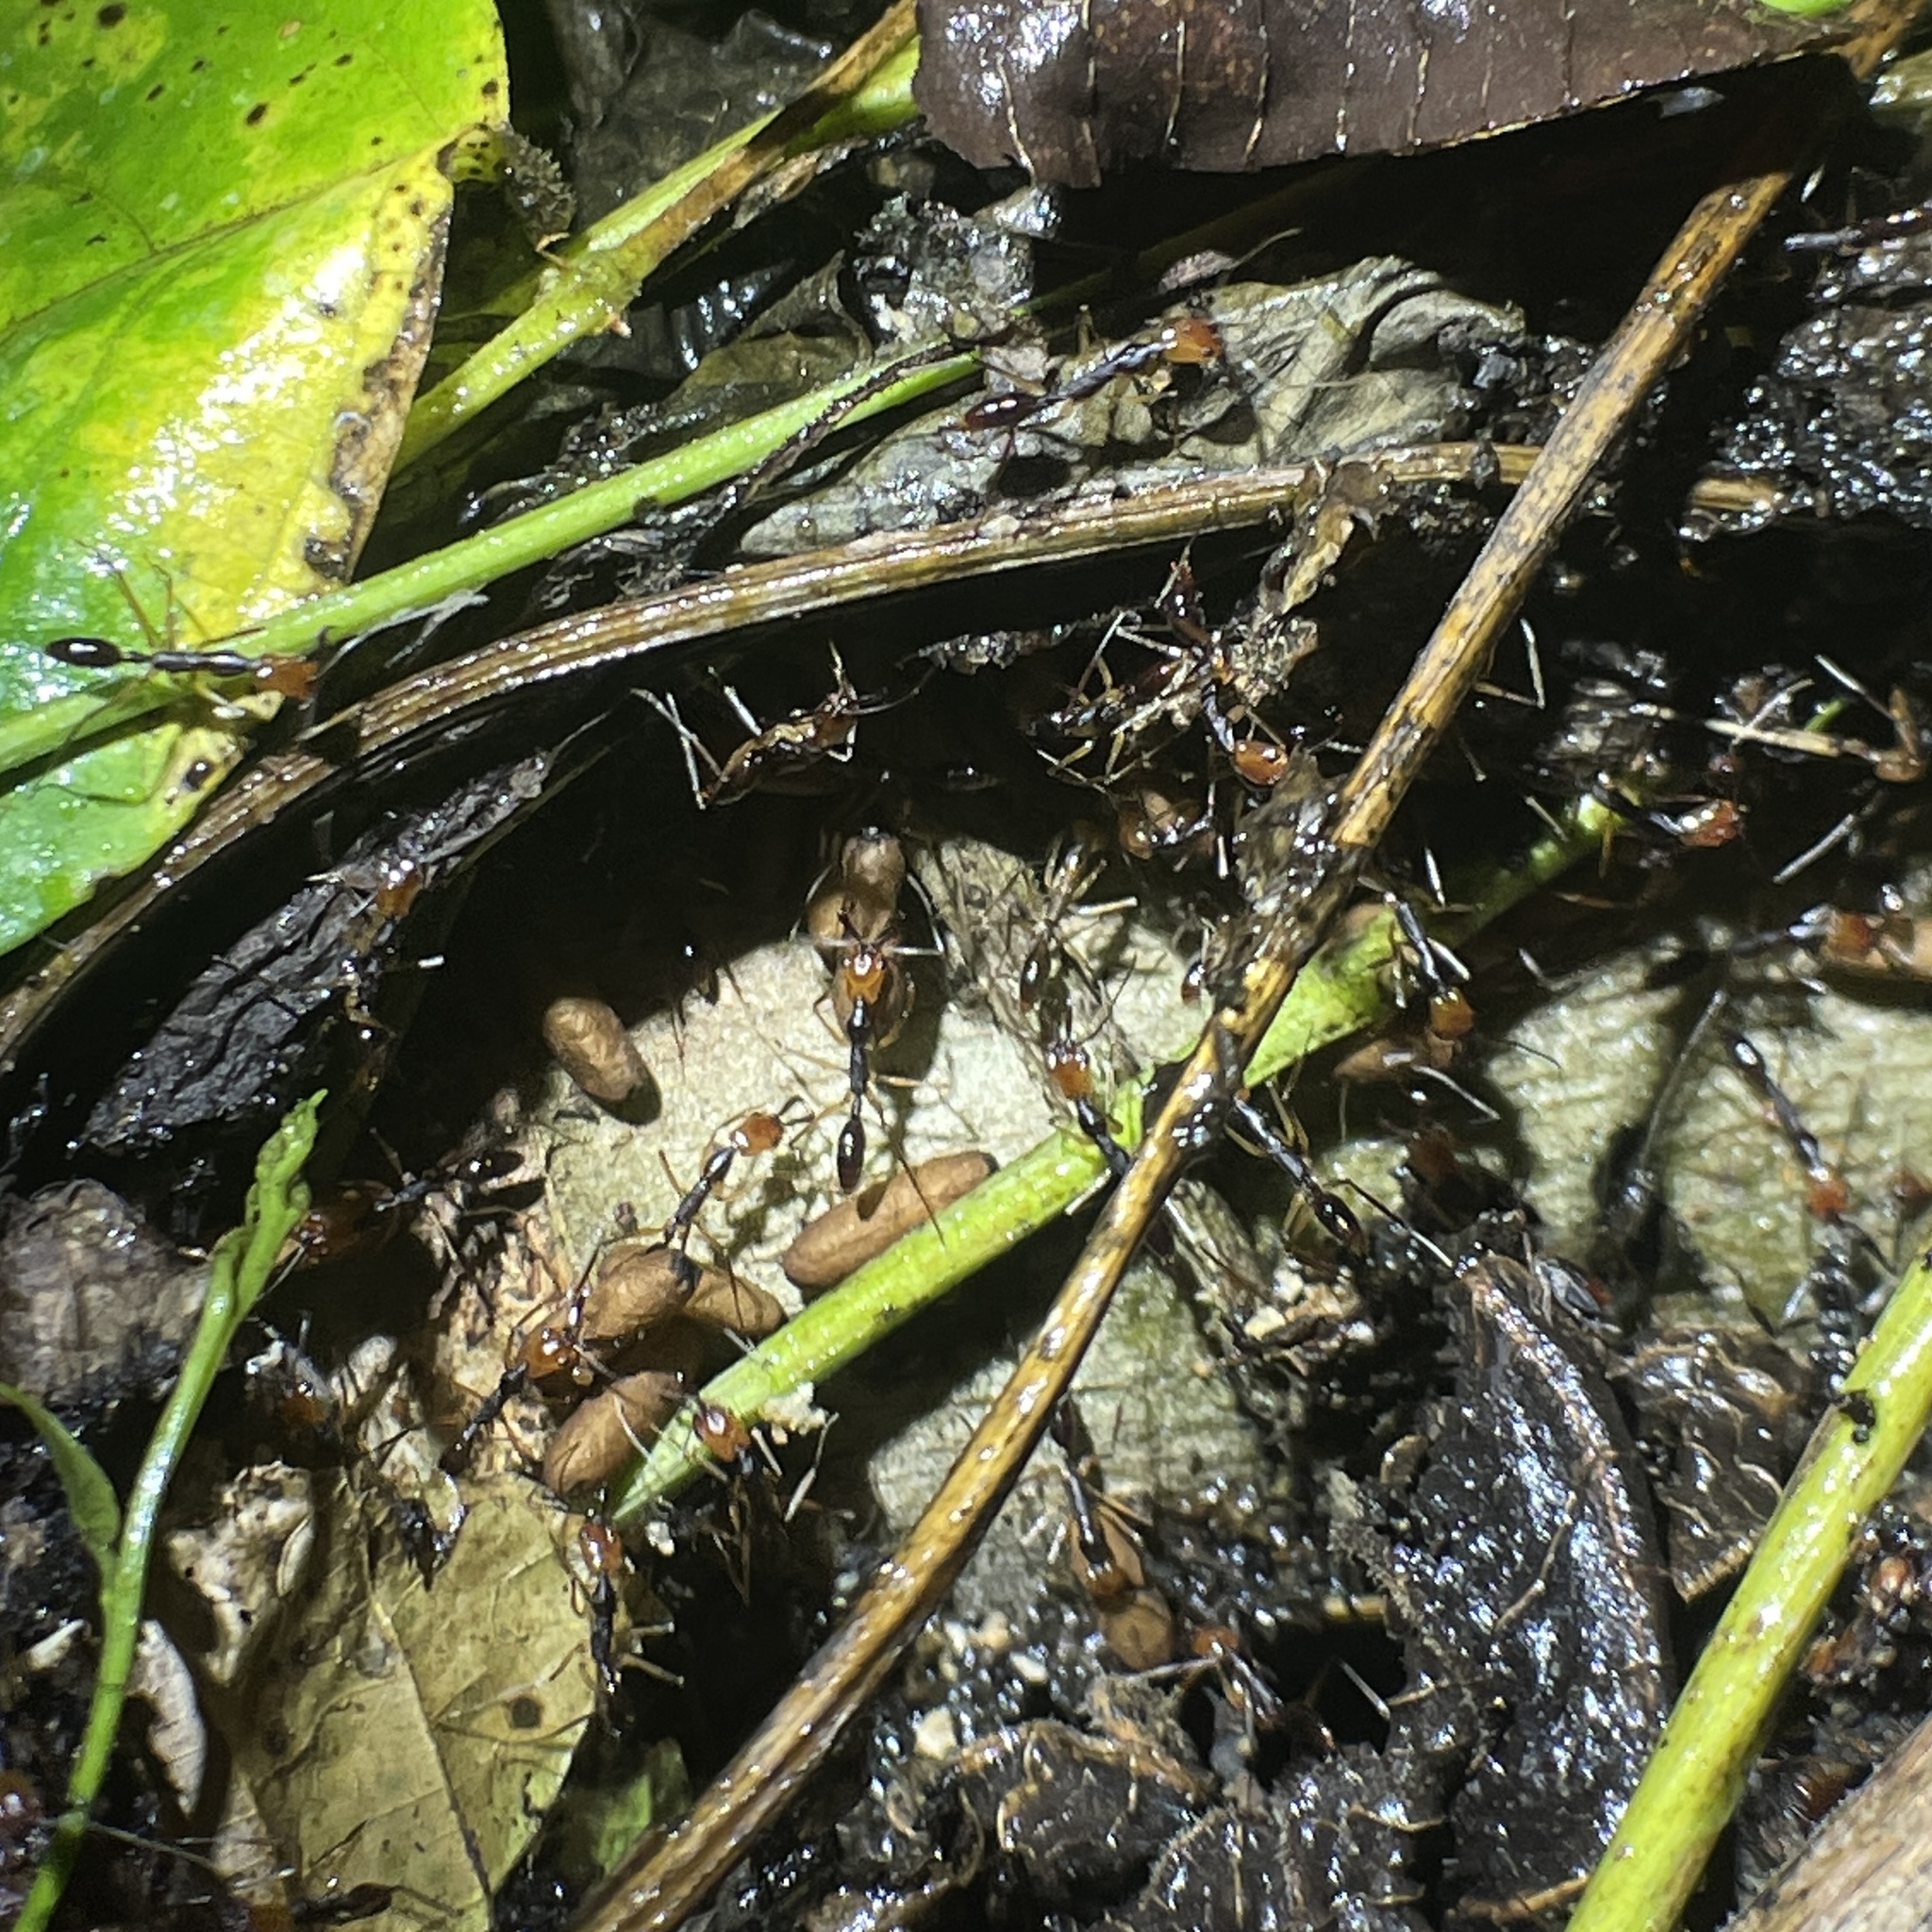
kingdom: Animalia
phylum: Arthropoda
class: Insecta
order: Hymenoptera
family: Formicidae
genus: Anochetus
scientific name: Anochetus emarginatus
